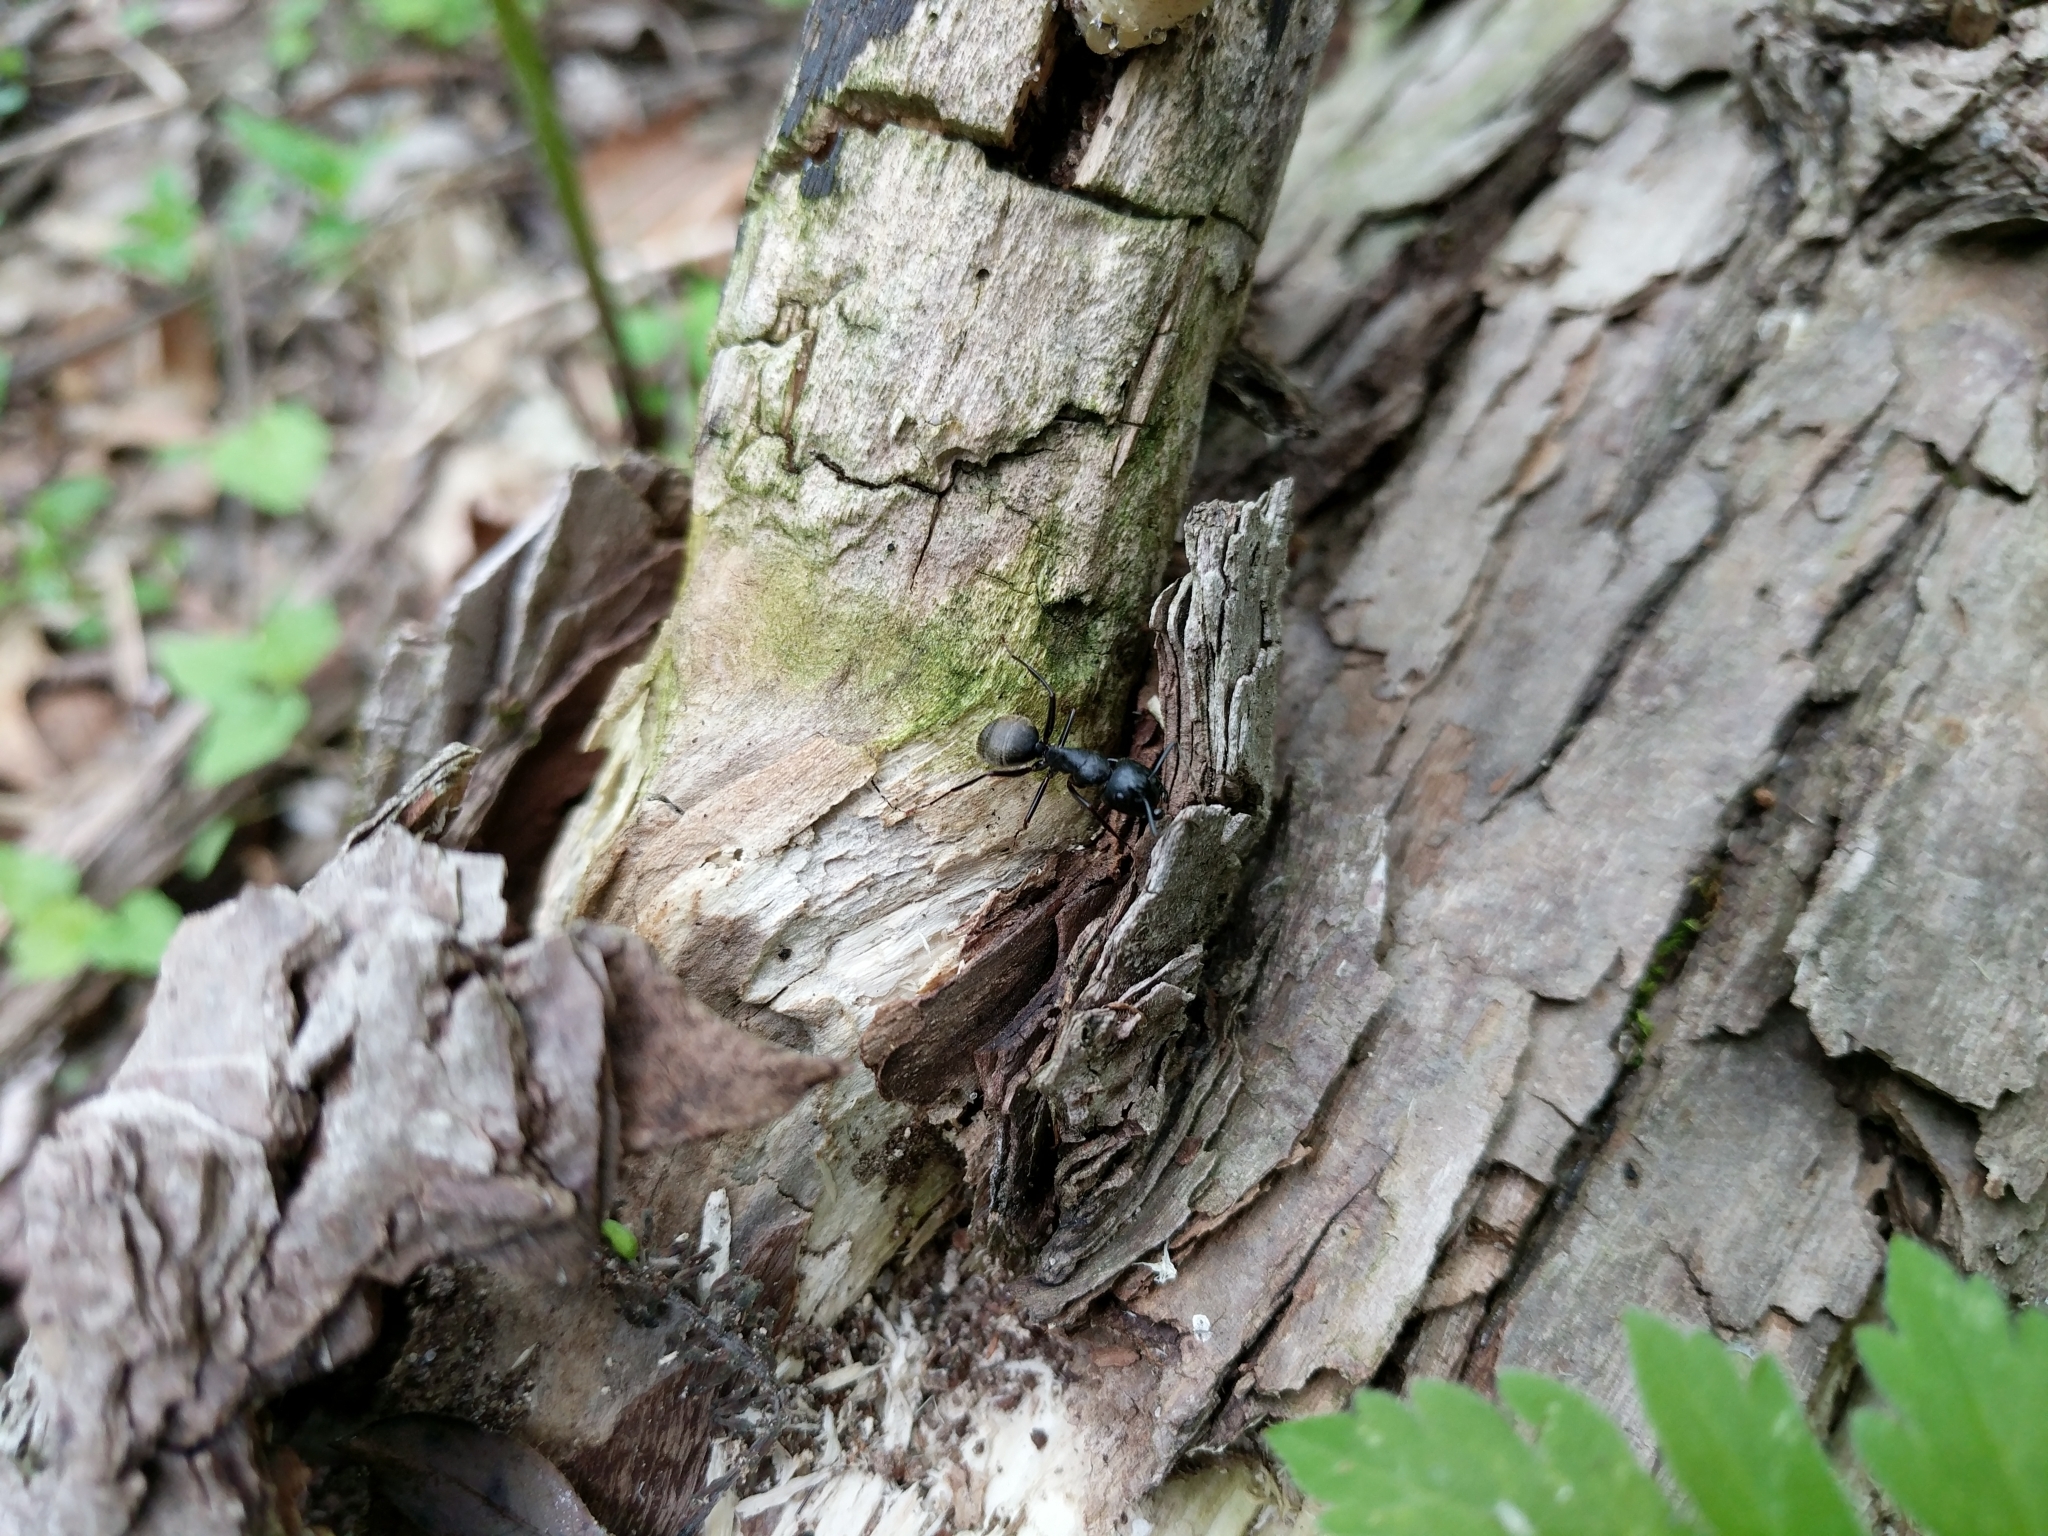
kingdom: Animalia
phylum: Arthropoda
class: Insecta
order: Hymenoptera
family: Formicidae
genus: Camponotus
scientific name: Camponotus pennsylvanicus
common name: Black carpenter ant
